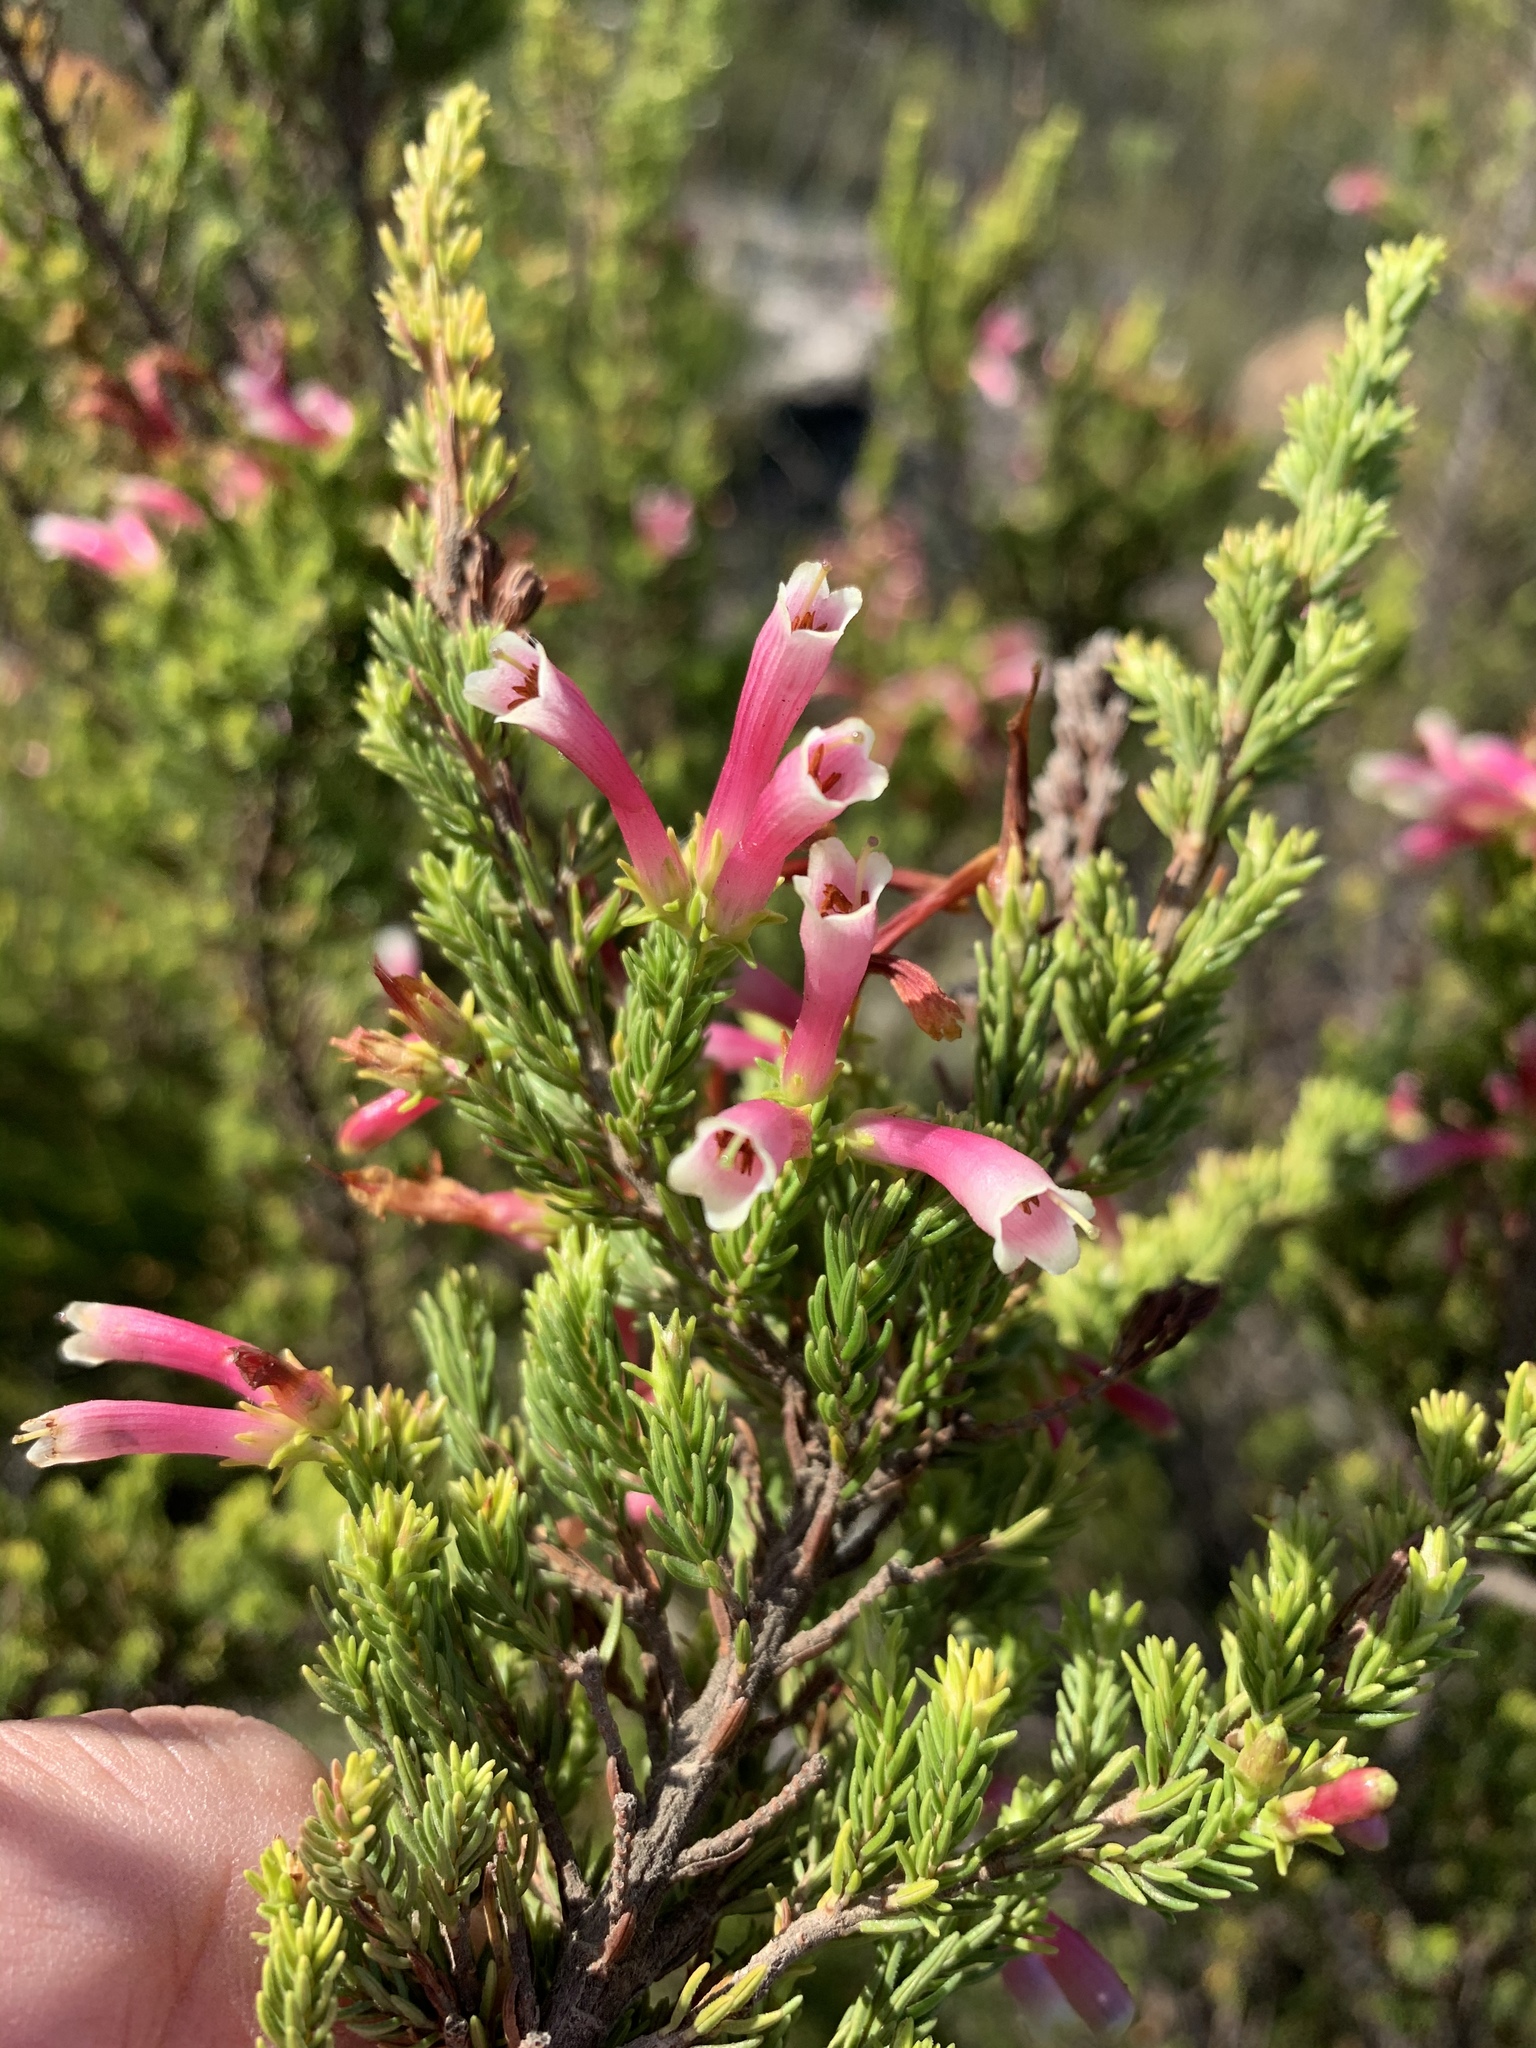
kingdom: Plantae
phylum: Tracheophyta
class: Magnoliopsida
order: Ericales
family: Ericaceae
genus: Erica
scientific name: Erica discolor
